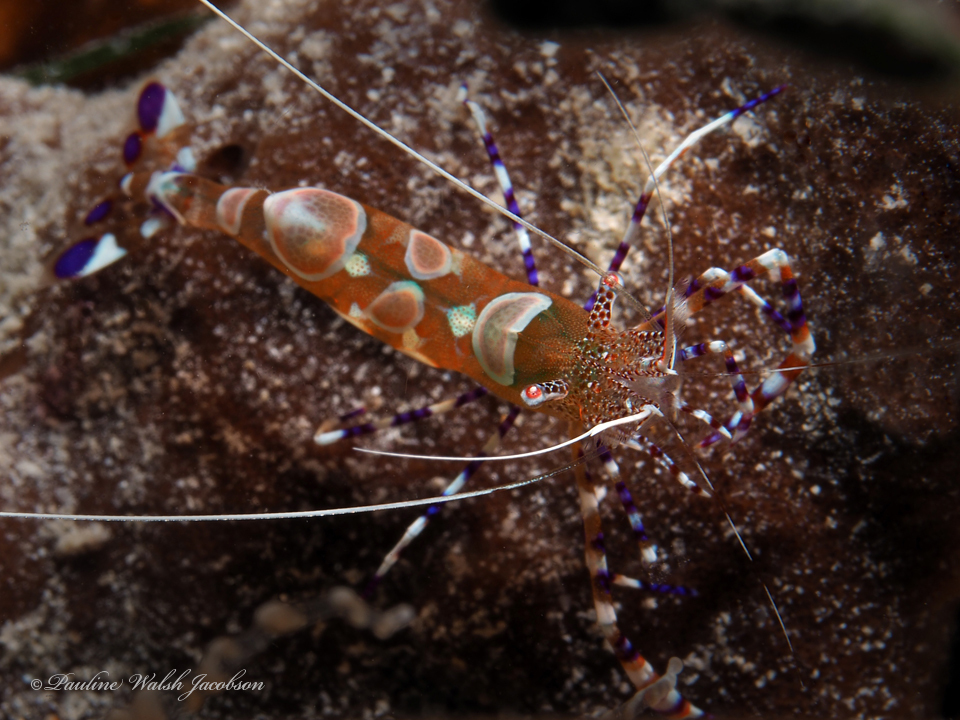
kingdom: Animalia
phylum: Arthropoda
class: Malacostraca
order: Decapoda
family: Palaemonidae
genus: Periclimenes
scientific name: Periclimenes yucatanicus
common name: Spotted cleaning shrimp
